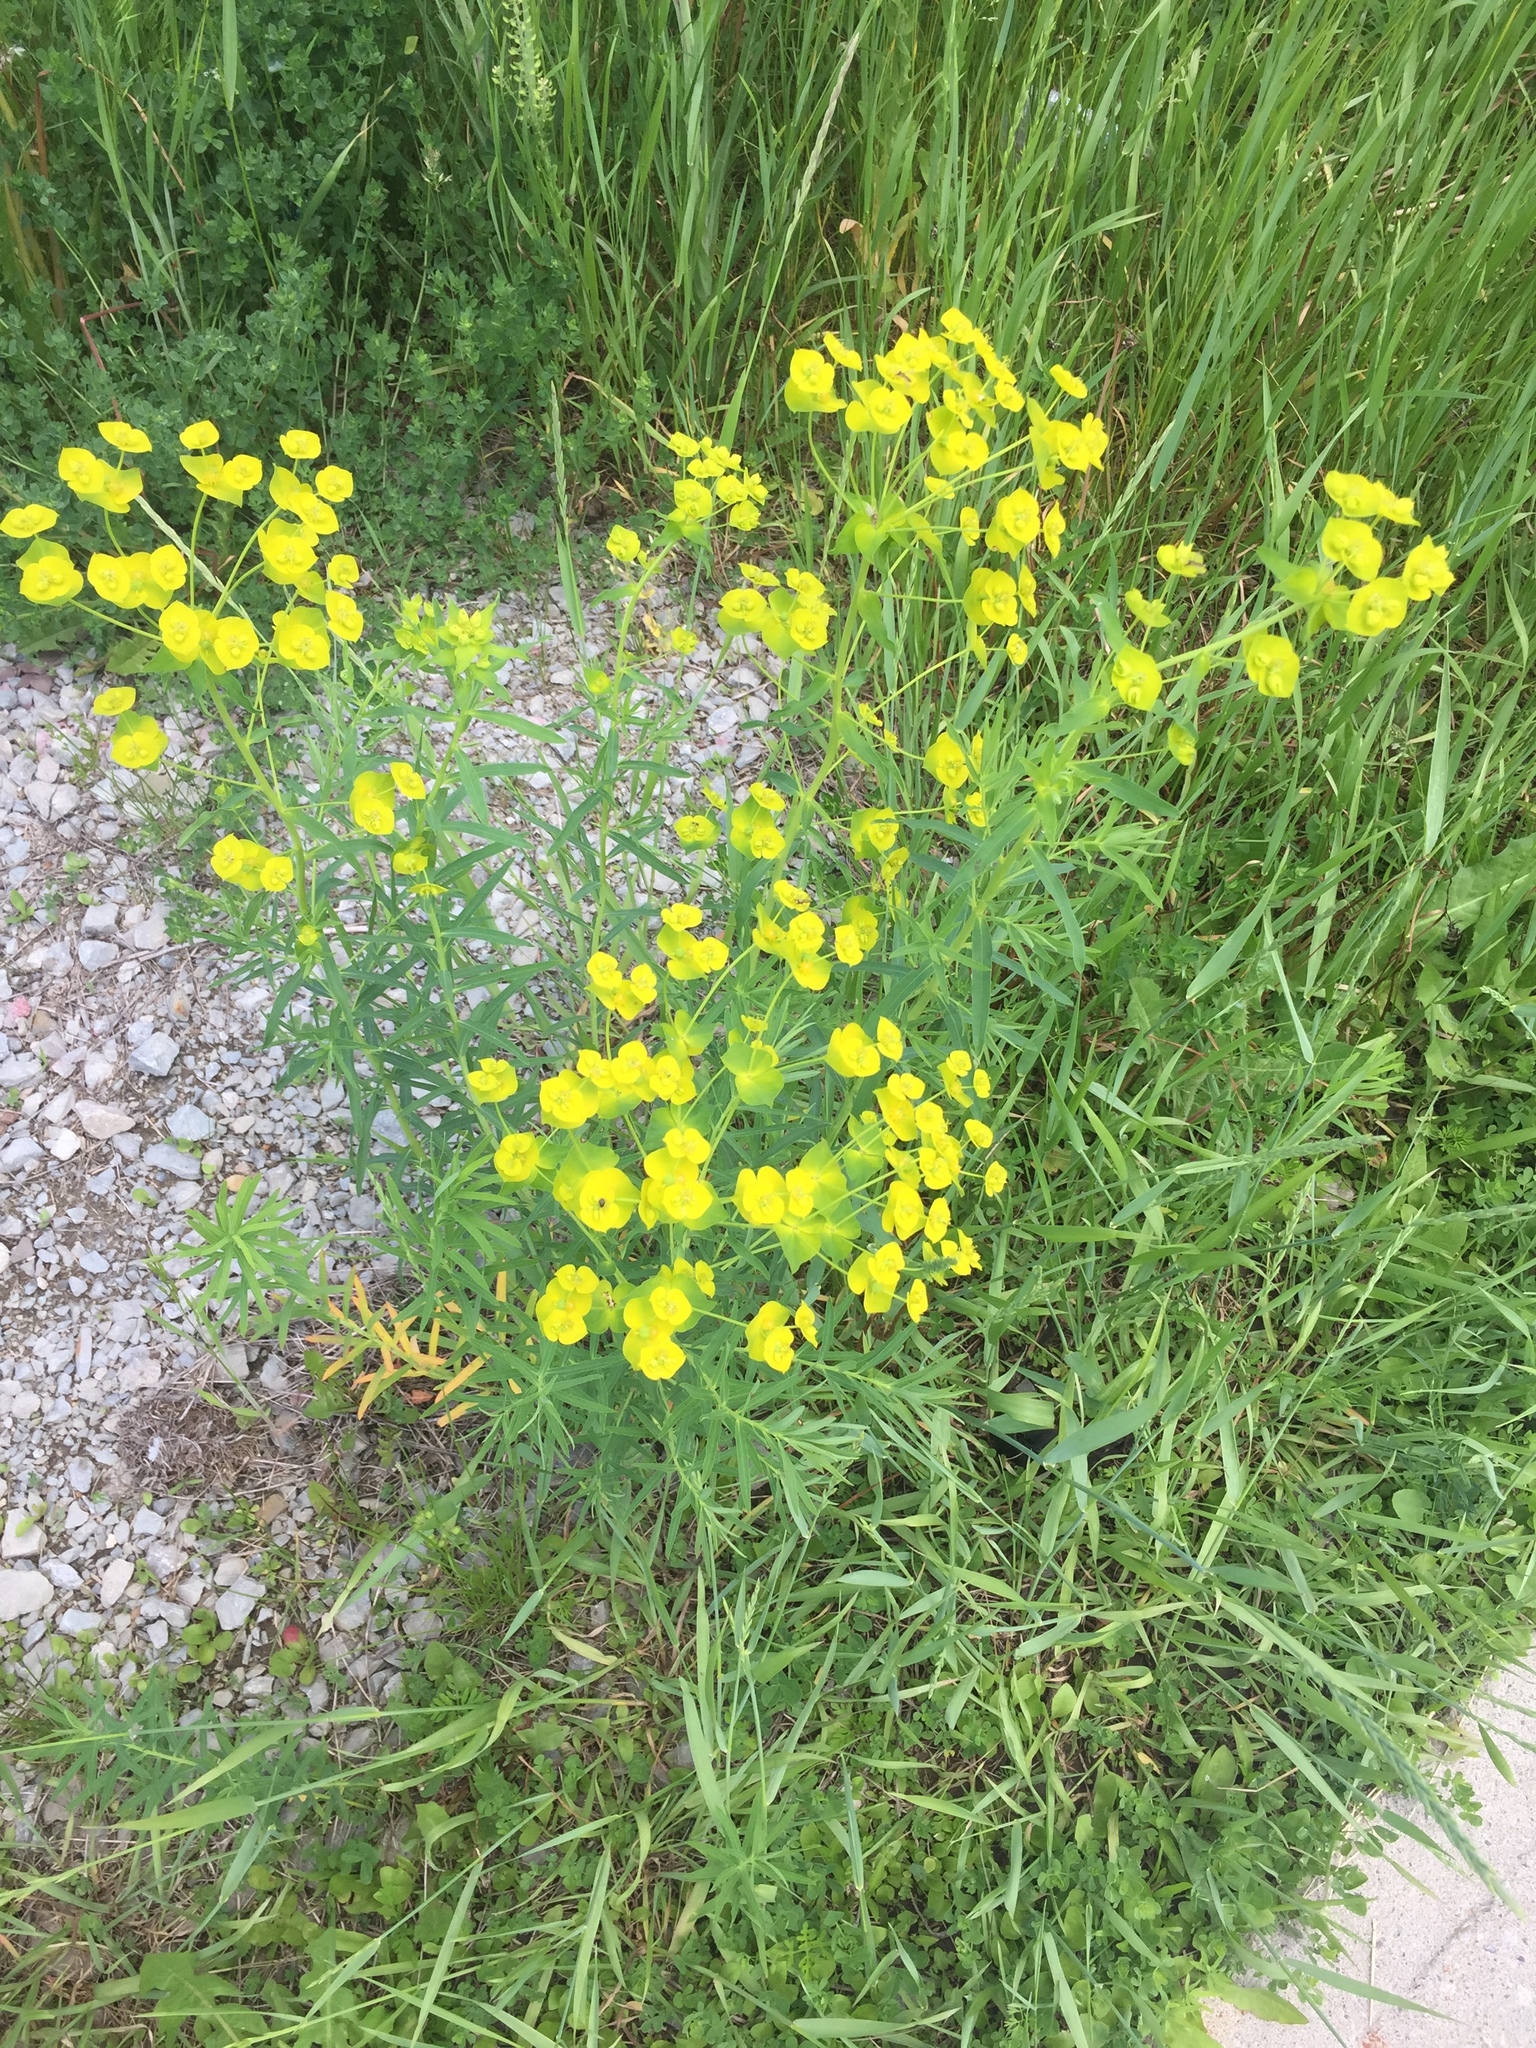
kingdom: Plantae
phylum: Tracheophyta
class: Magnoliopsida
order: Malpighiales
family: Euphorbiaceae
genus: Euphorbia
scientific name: Euphorbia virgata
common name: Leafy spurge
